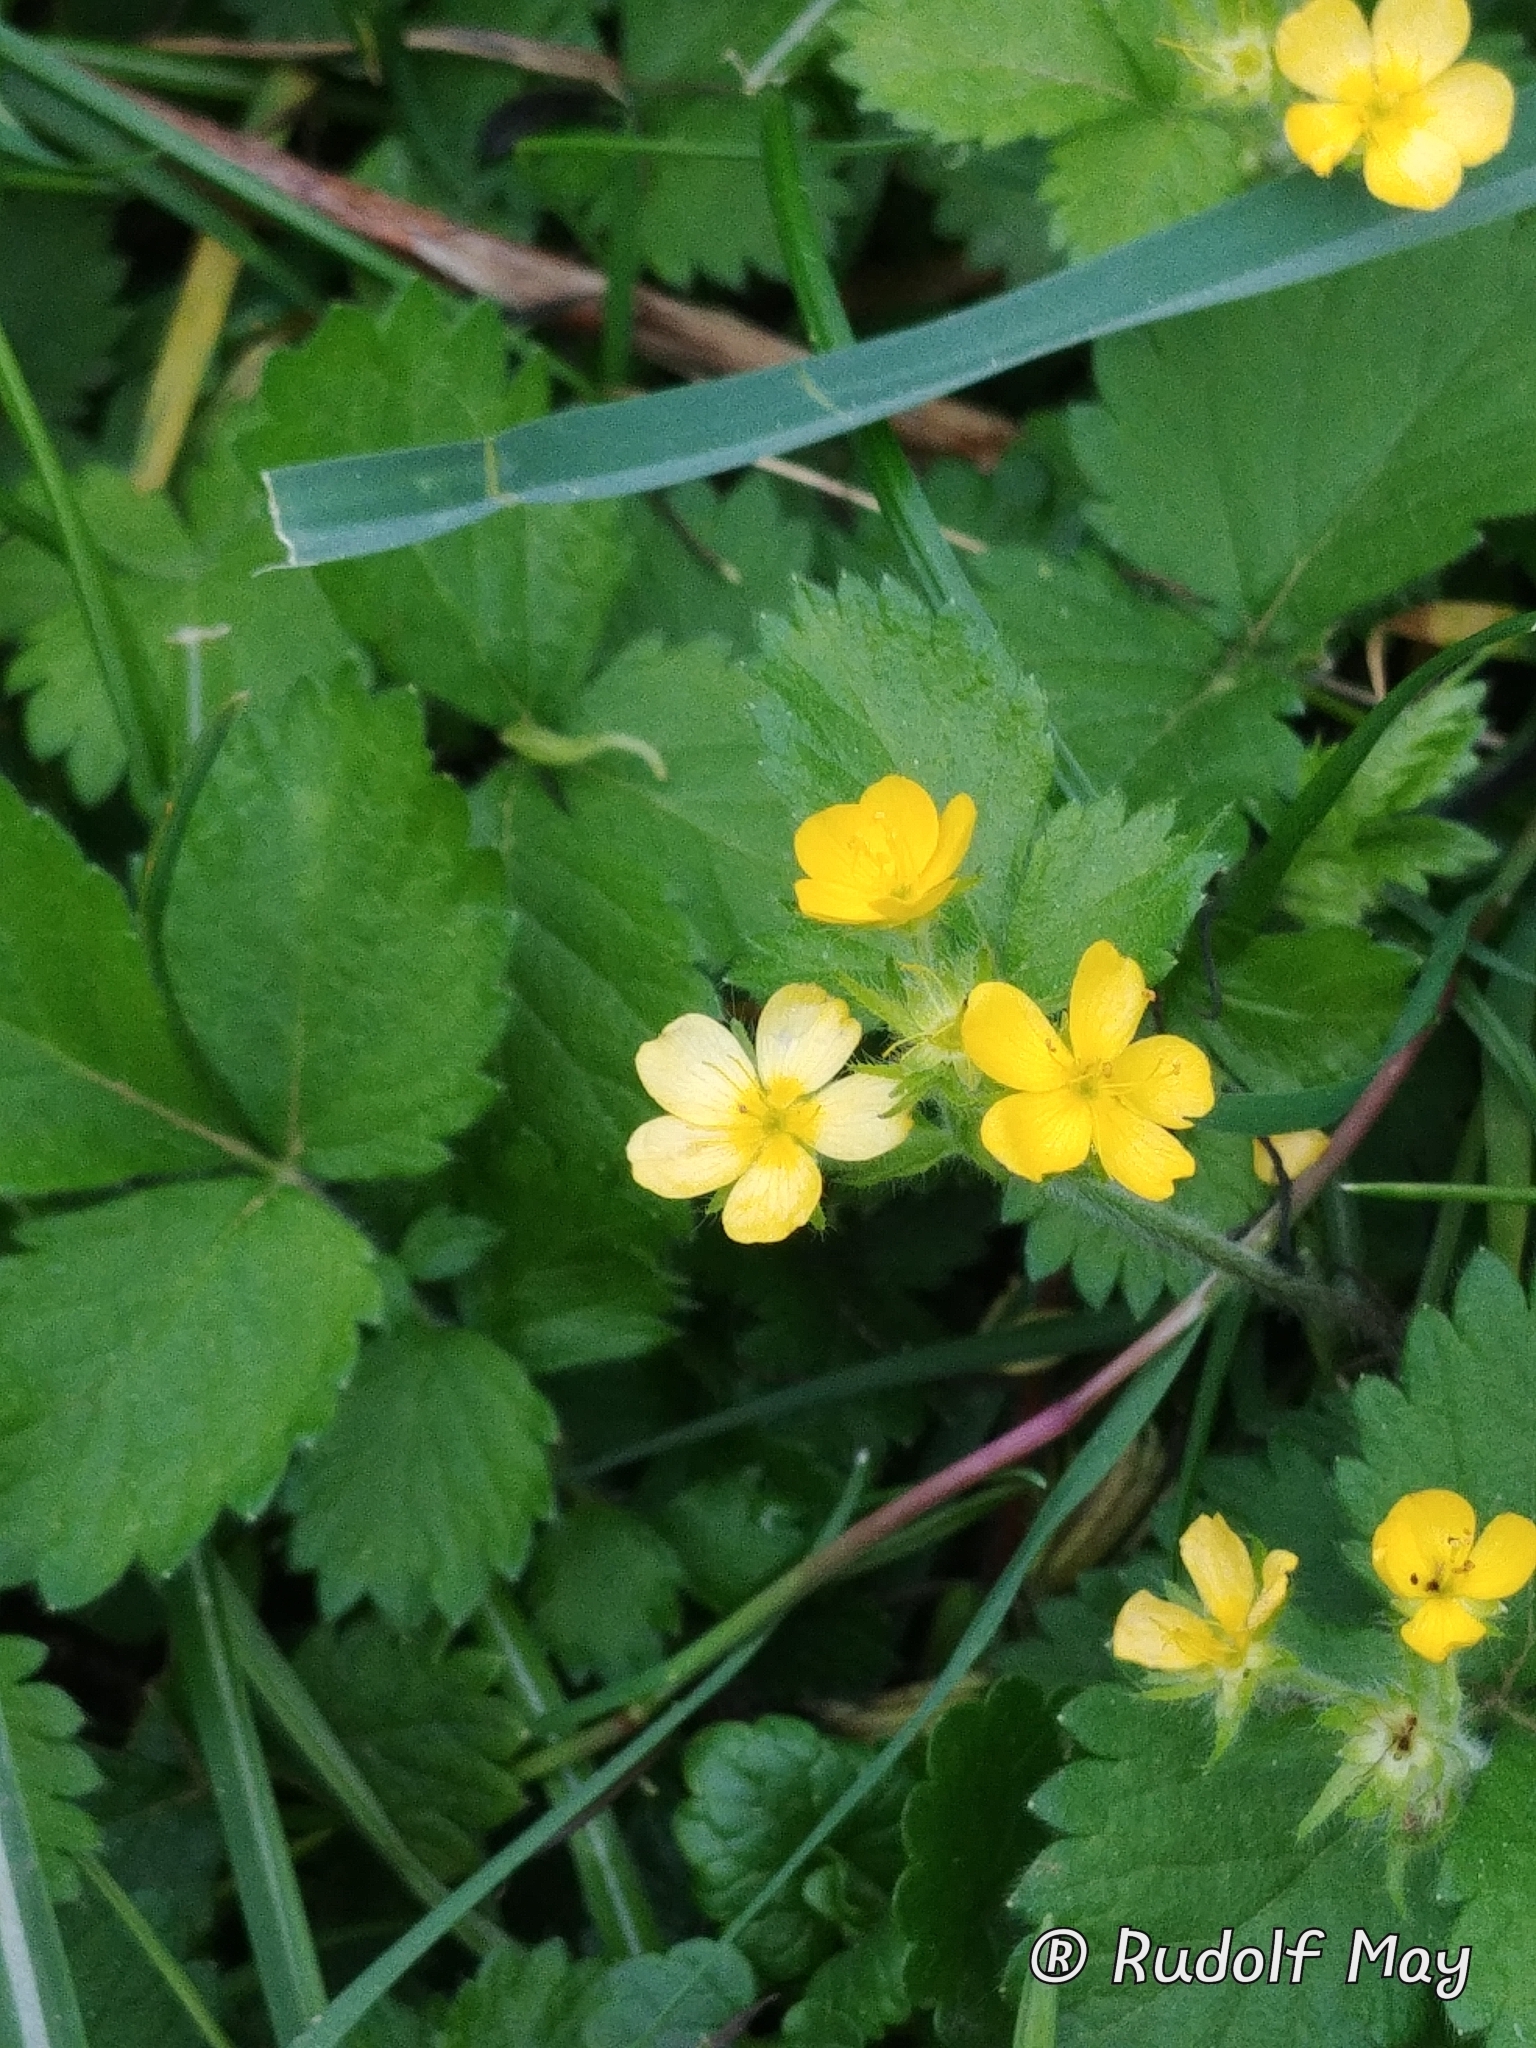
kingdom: Plantae
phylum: Tracheophyta
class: Magnoliopsida
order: Rosales
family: Rosaceae
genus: Potentilla
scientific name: Potentilla indica
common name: Yellow-flowered strawberry
